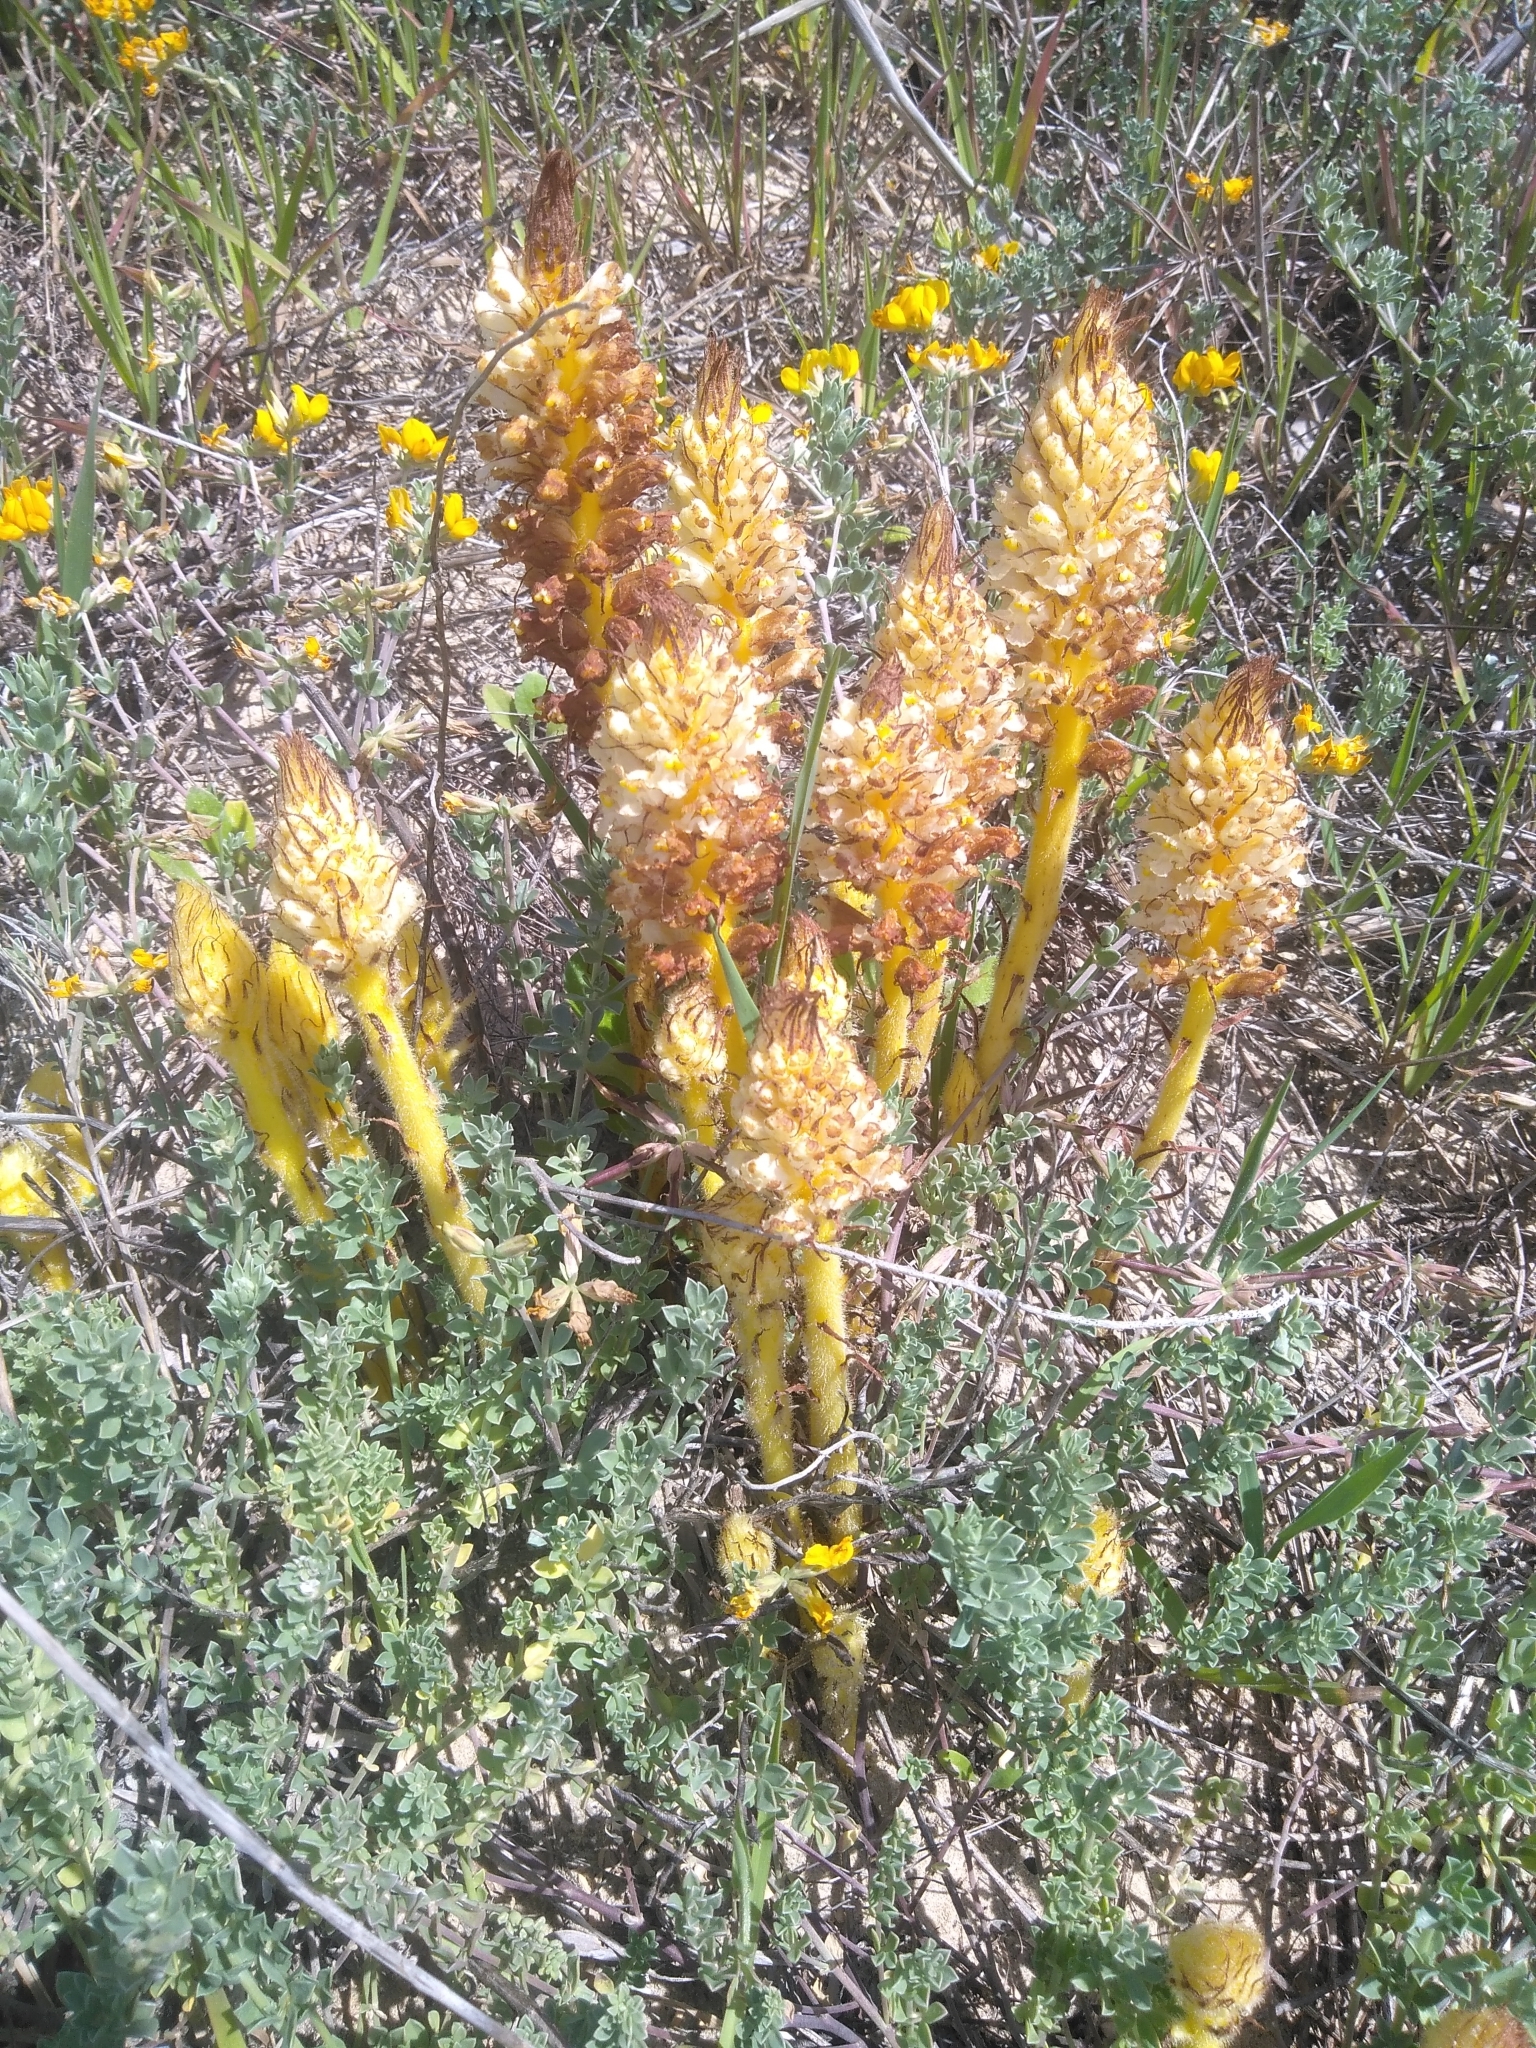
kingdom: Plantae
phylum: Tracheophyta
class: Magnoliopsida
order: Lamiales
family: Orobanchaceae
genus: Orobanche
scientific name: Orobanche densiflora
